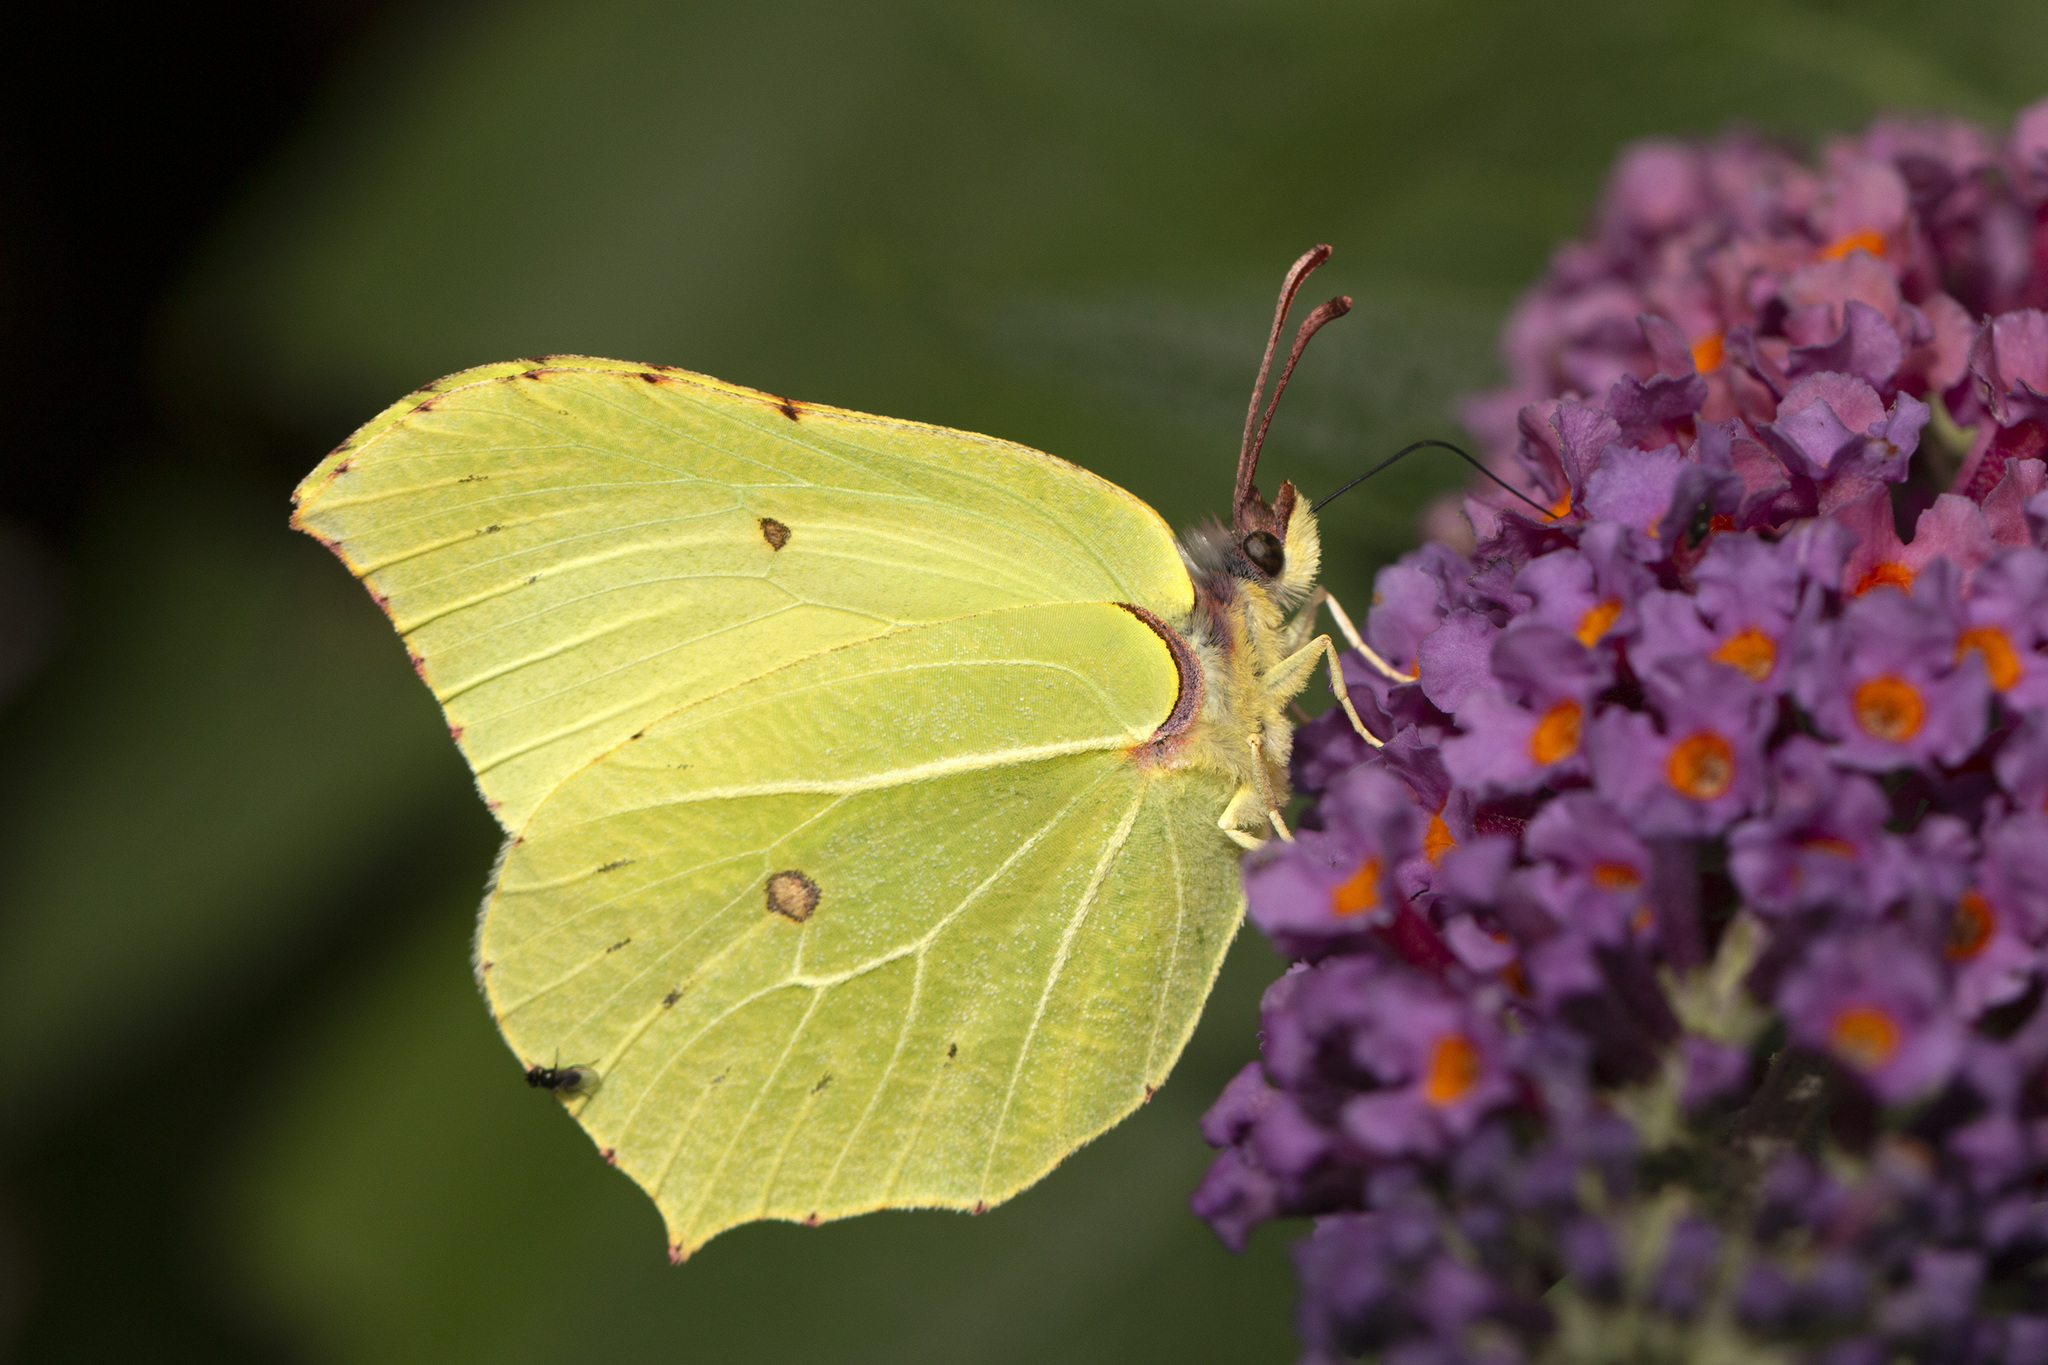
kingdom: Animalia
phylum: Arthropoda
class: Insecta
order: Lepidoptera
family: Pieridae
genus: Gonepteryx
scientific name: Gonepteryx rhamni
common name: Brimstone
